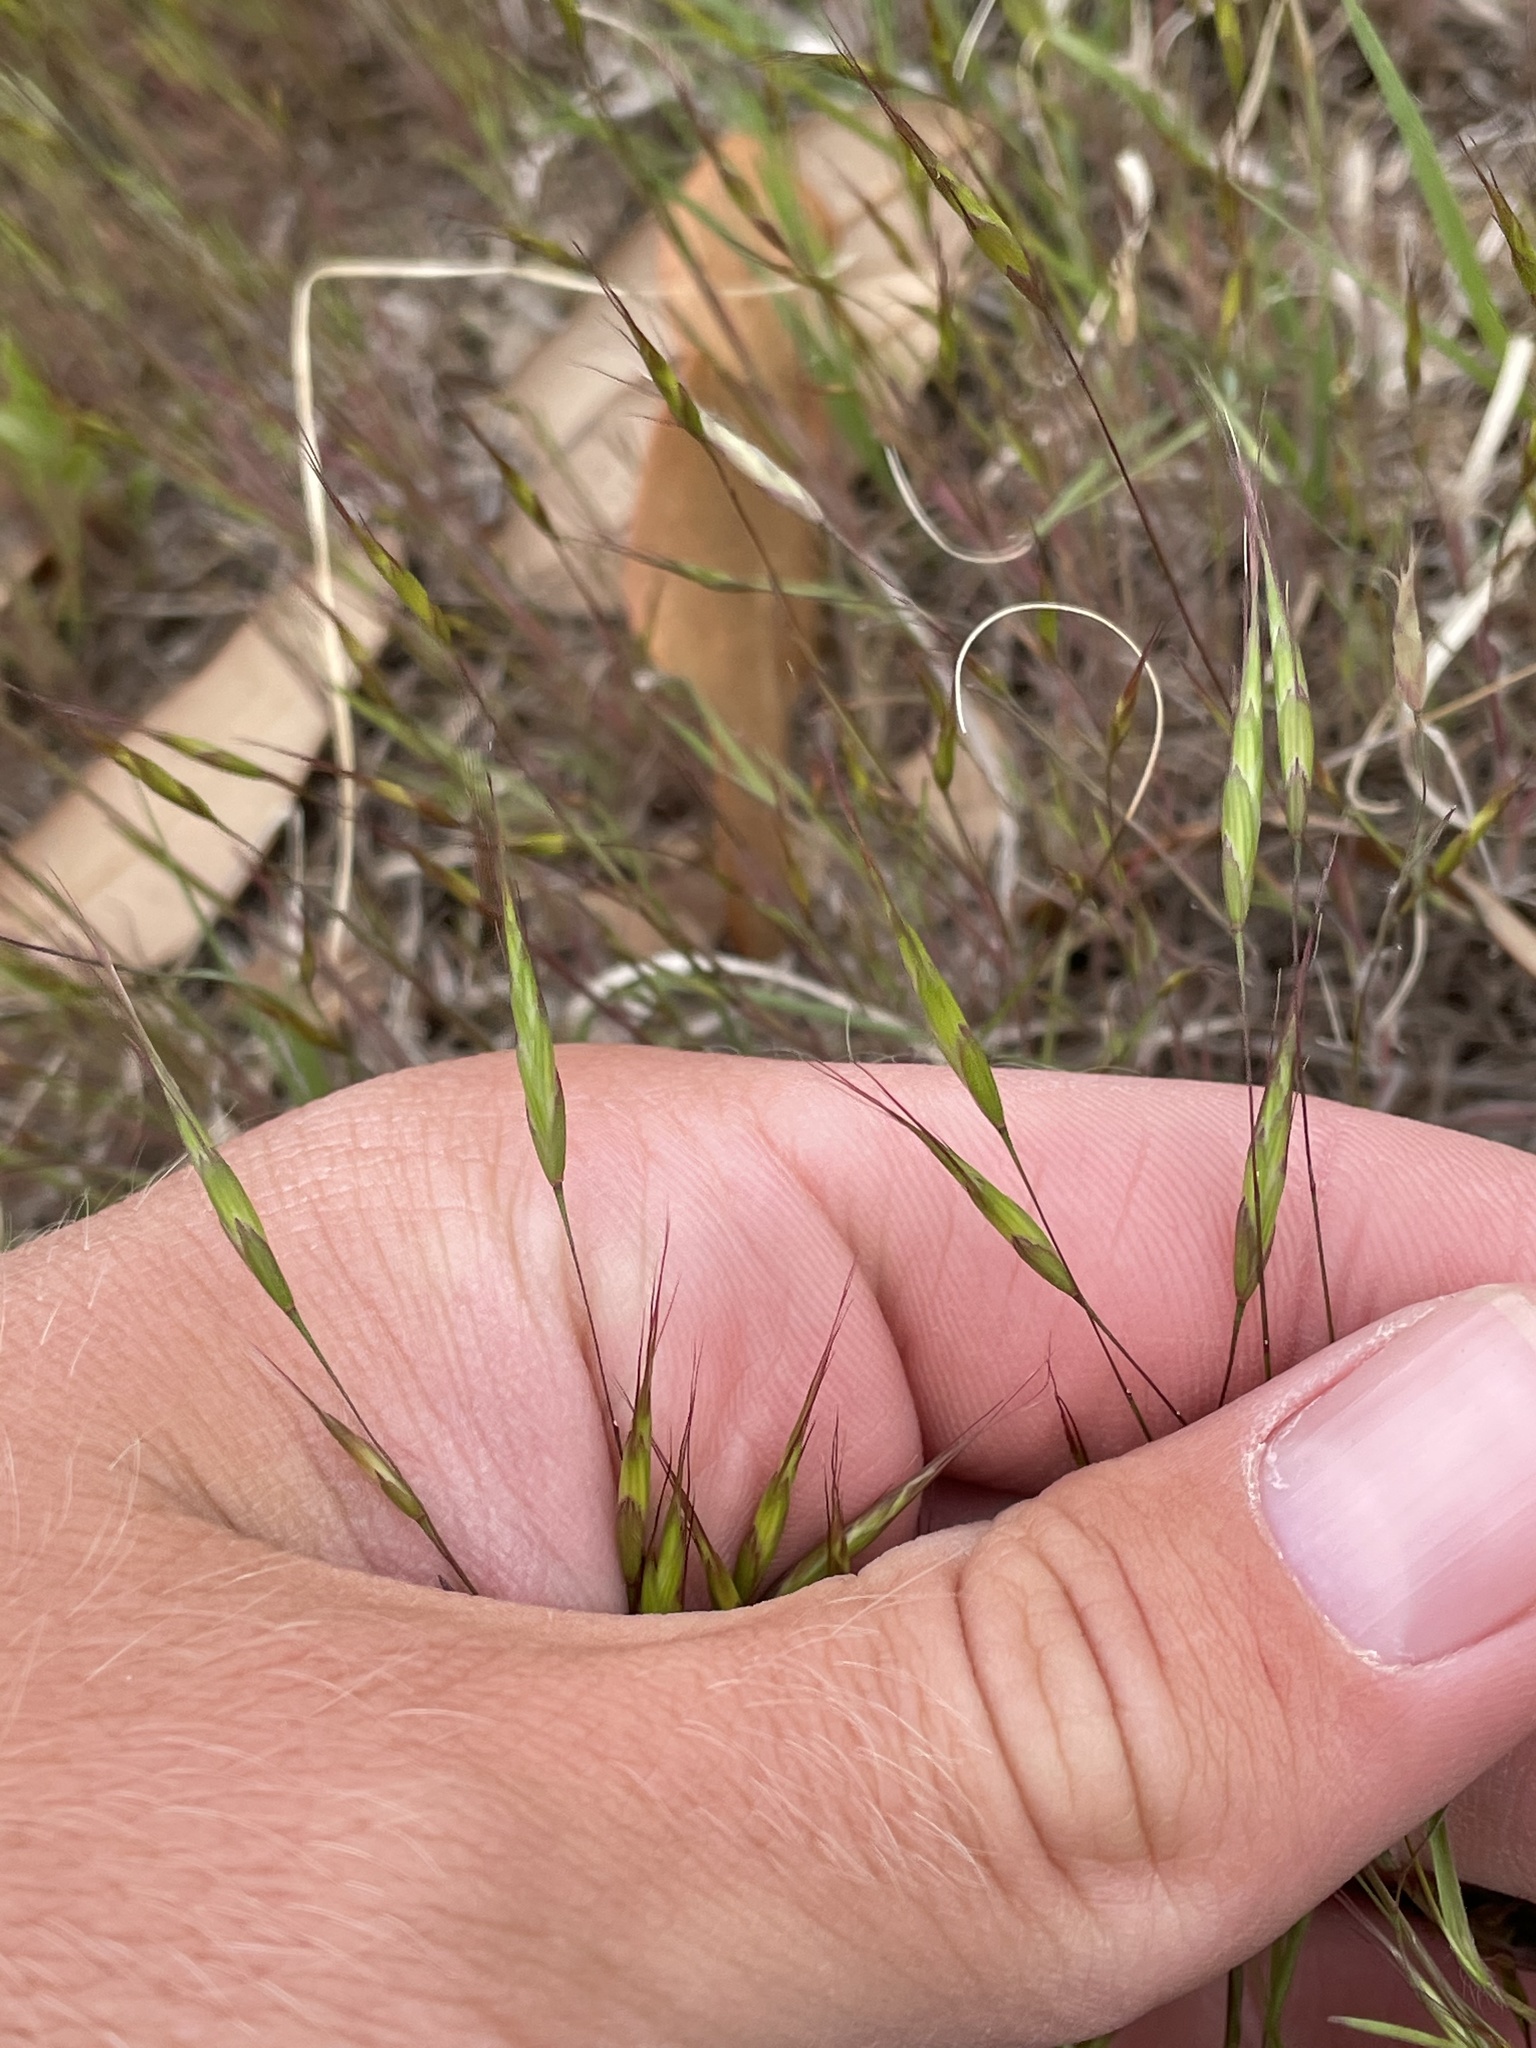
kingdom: Plantae
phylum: Tracheophyta
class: Liliopsida
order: Poales
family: Poaceae
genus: Bromus
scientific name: Bromus japonicus
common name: Japanese brome
